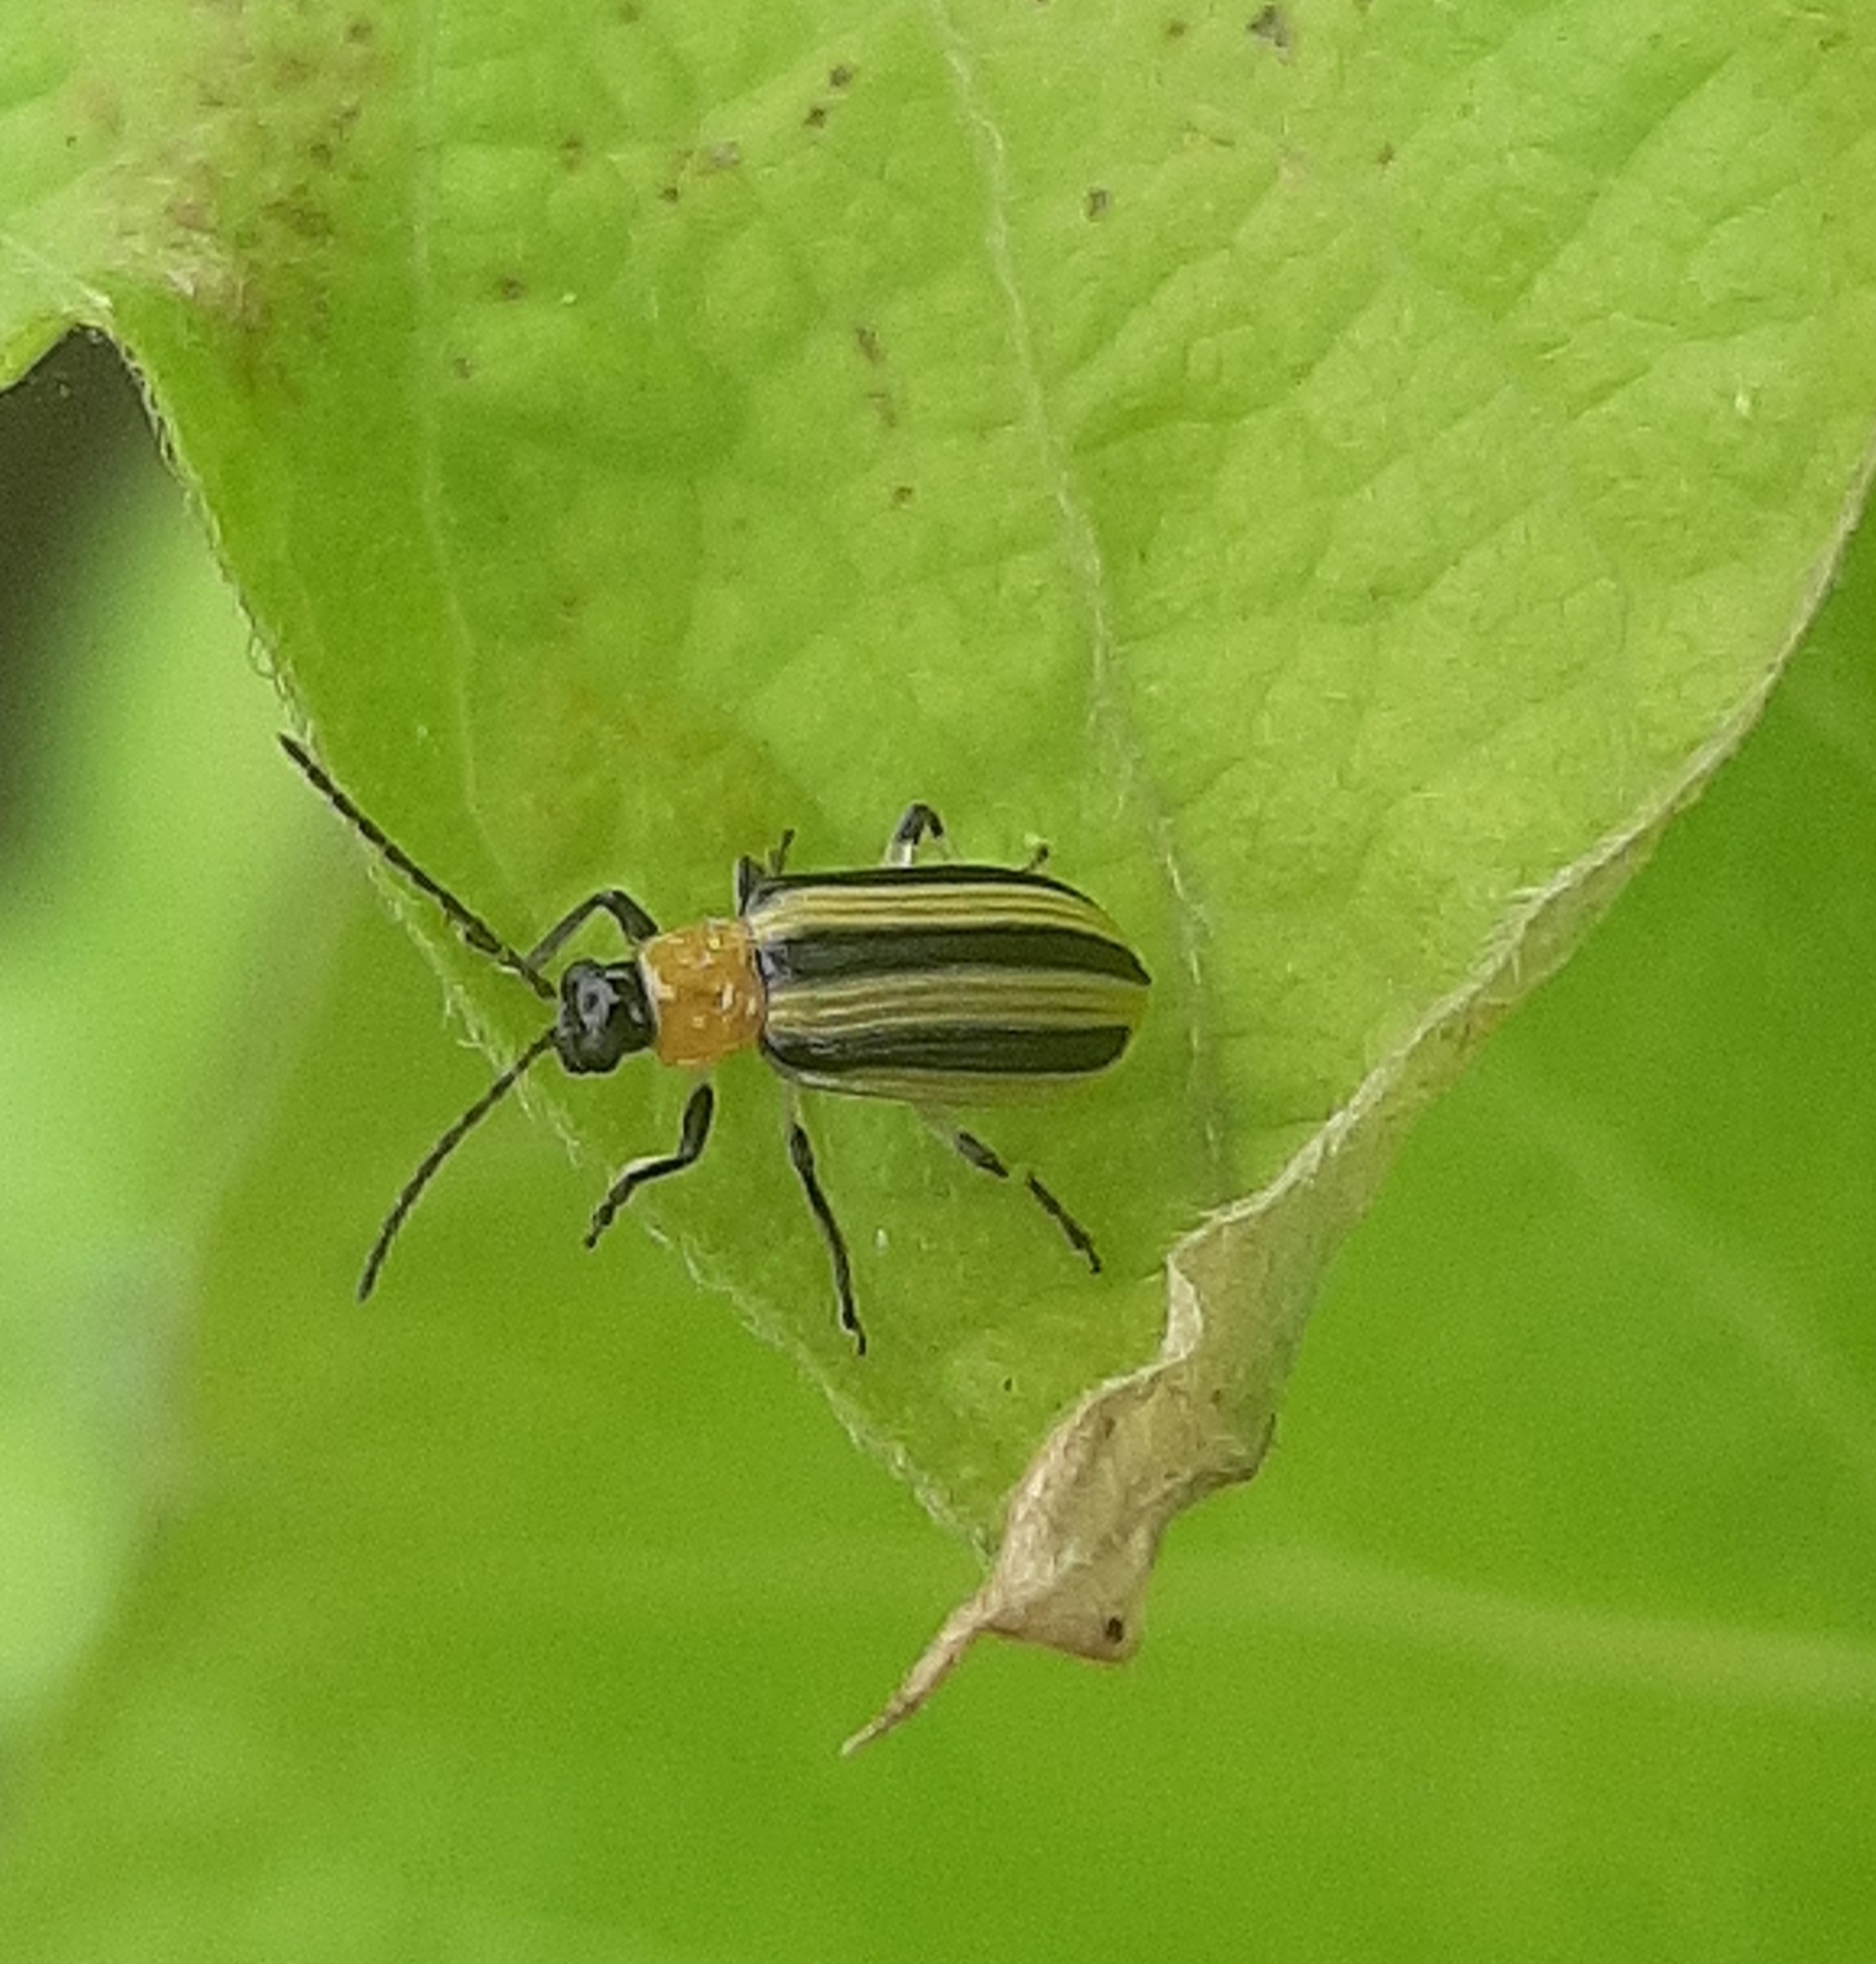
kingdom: Animalia
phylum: Arthropoda
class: Insecta
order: Coleoptera
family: Chrysomelidae
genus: Acalymma
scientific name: Acalymma vittatum
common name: Striped cucumber beetle
